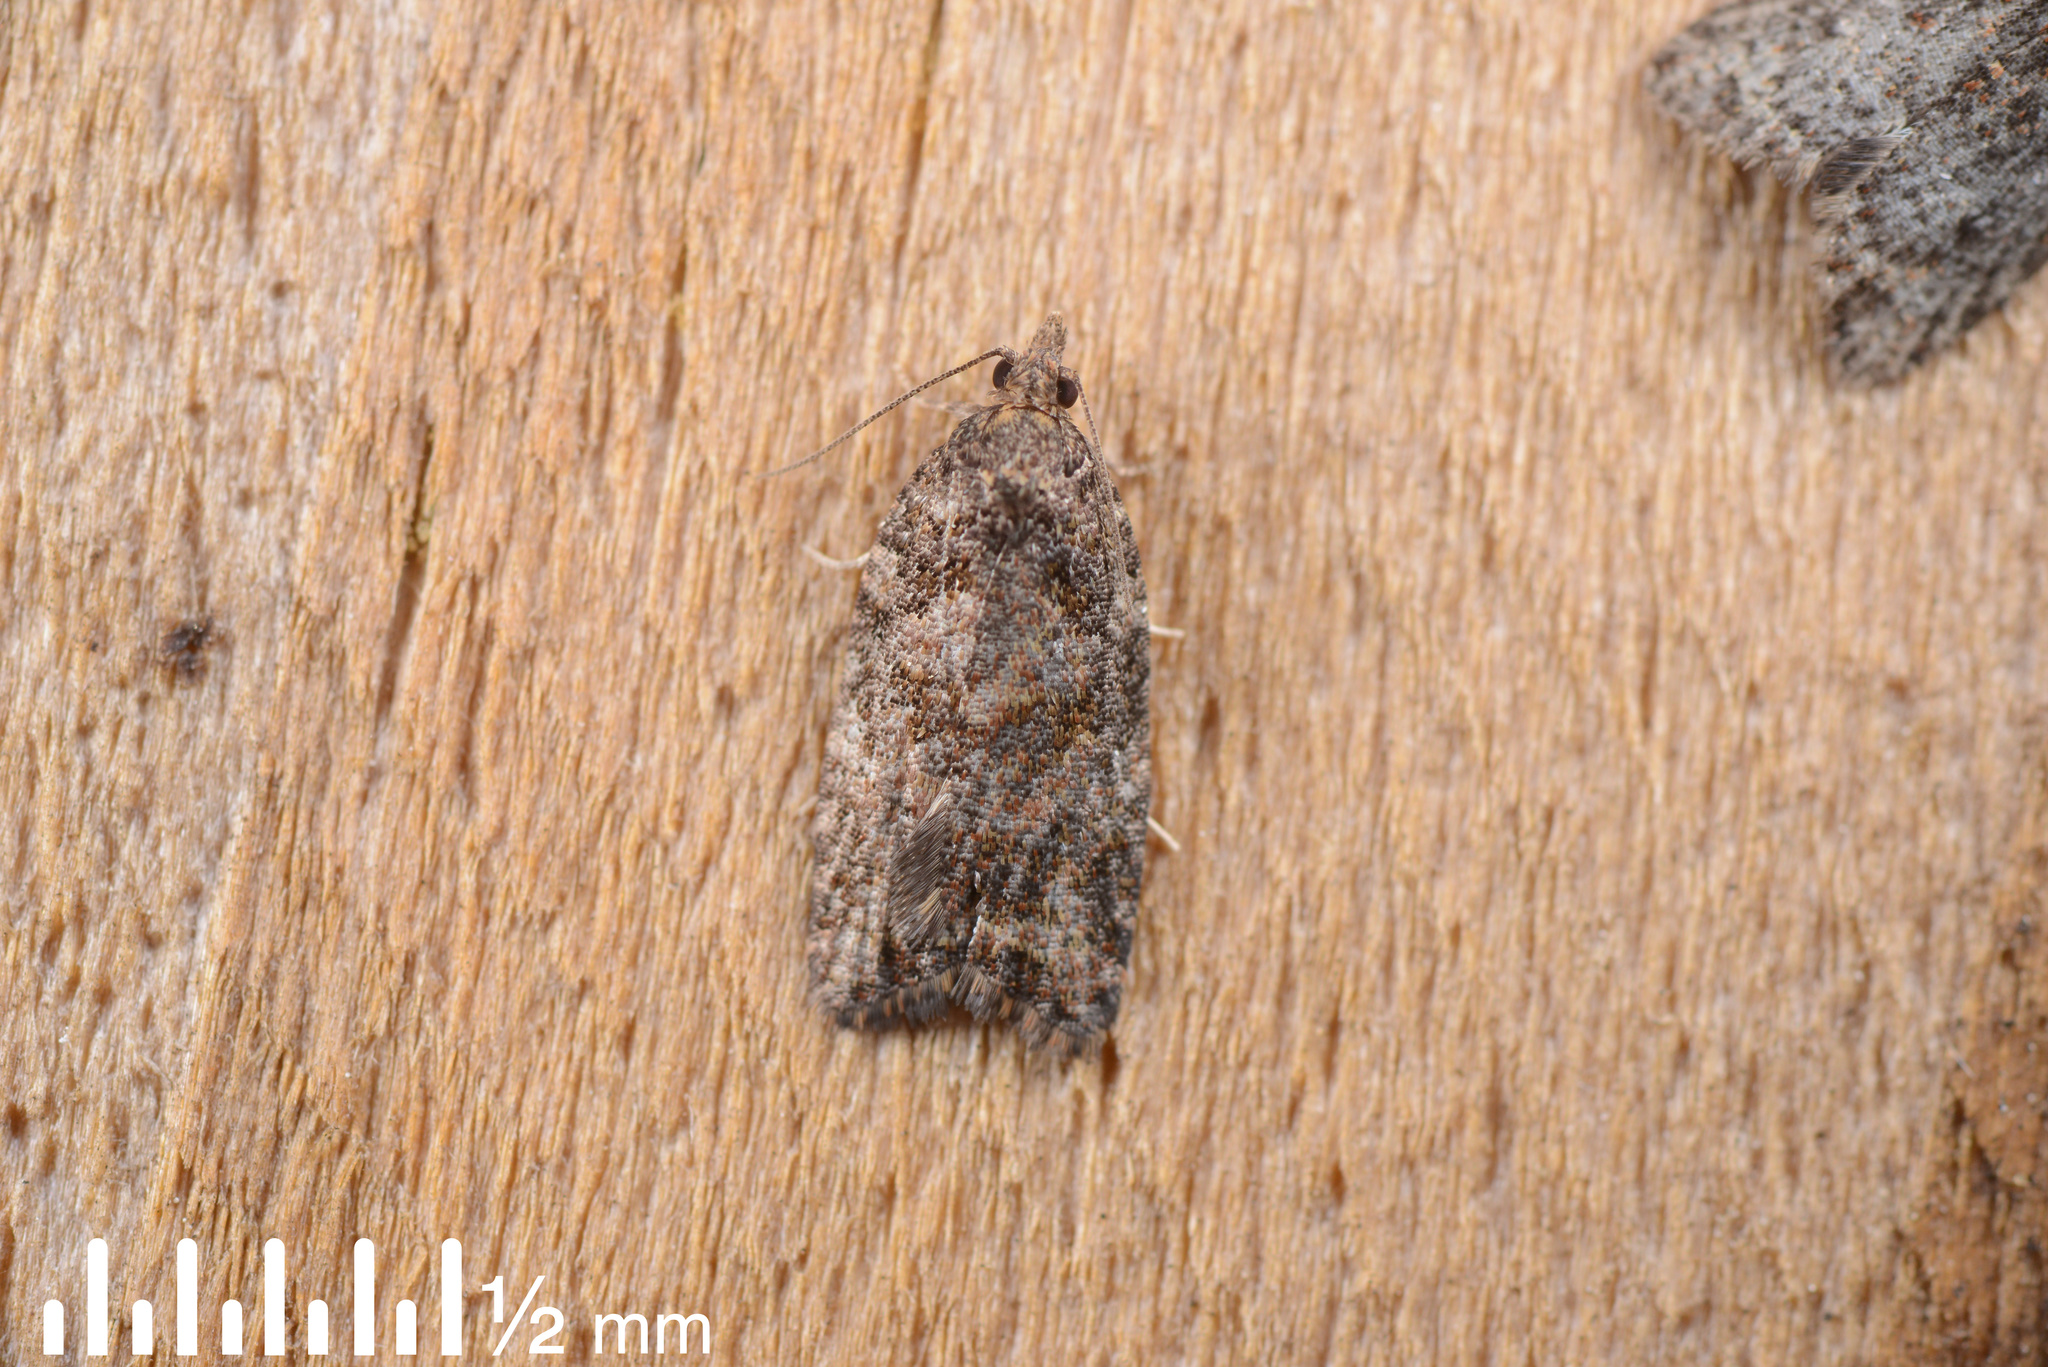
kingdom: Animalia
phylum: Arthropoda
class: Insecta
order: Lepidoptera
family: Tortricidae
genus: Capua
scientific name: Capua intractana
